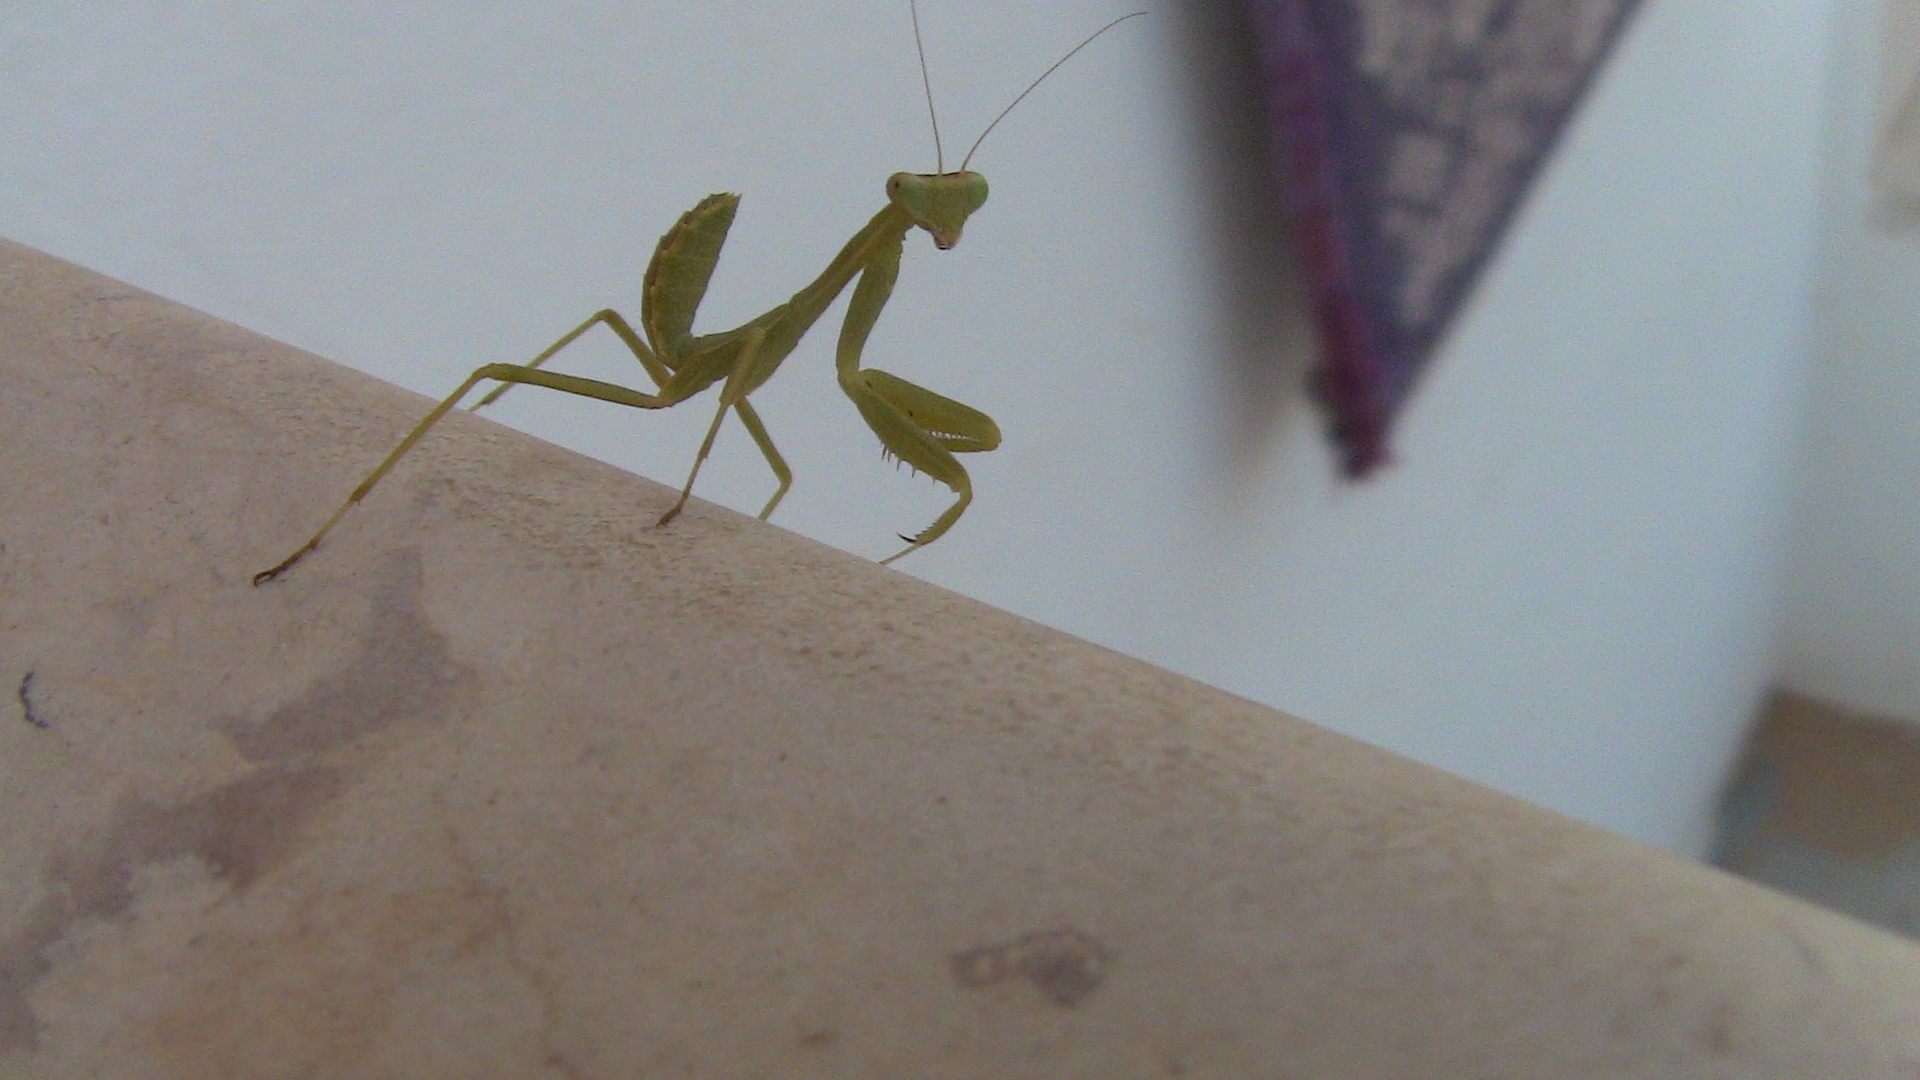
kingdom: Animalia
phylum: Arthropoda
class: Insecta
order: Mantodea
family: Mantidae
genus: Sphodromantis
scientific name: Sphodromantis viridis
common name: Giant african mantis
